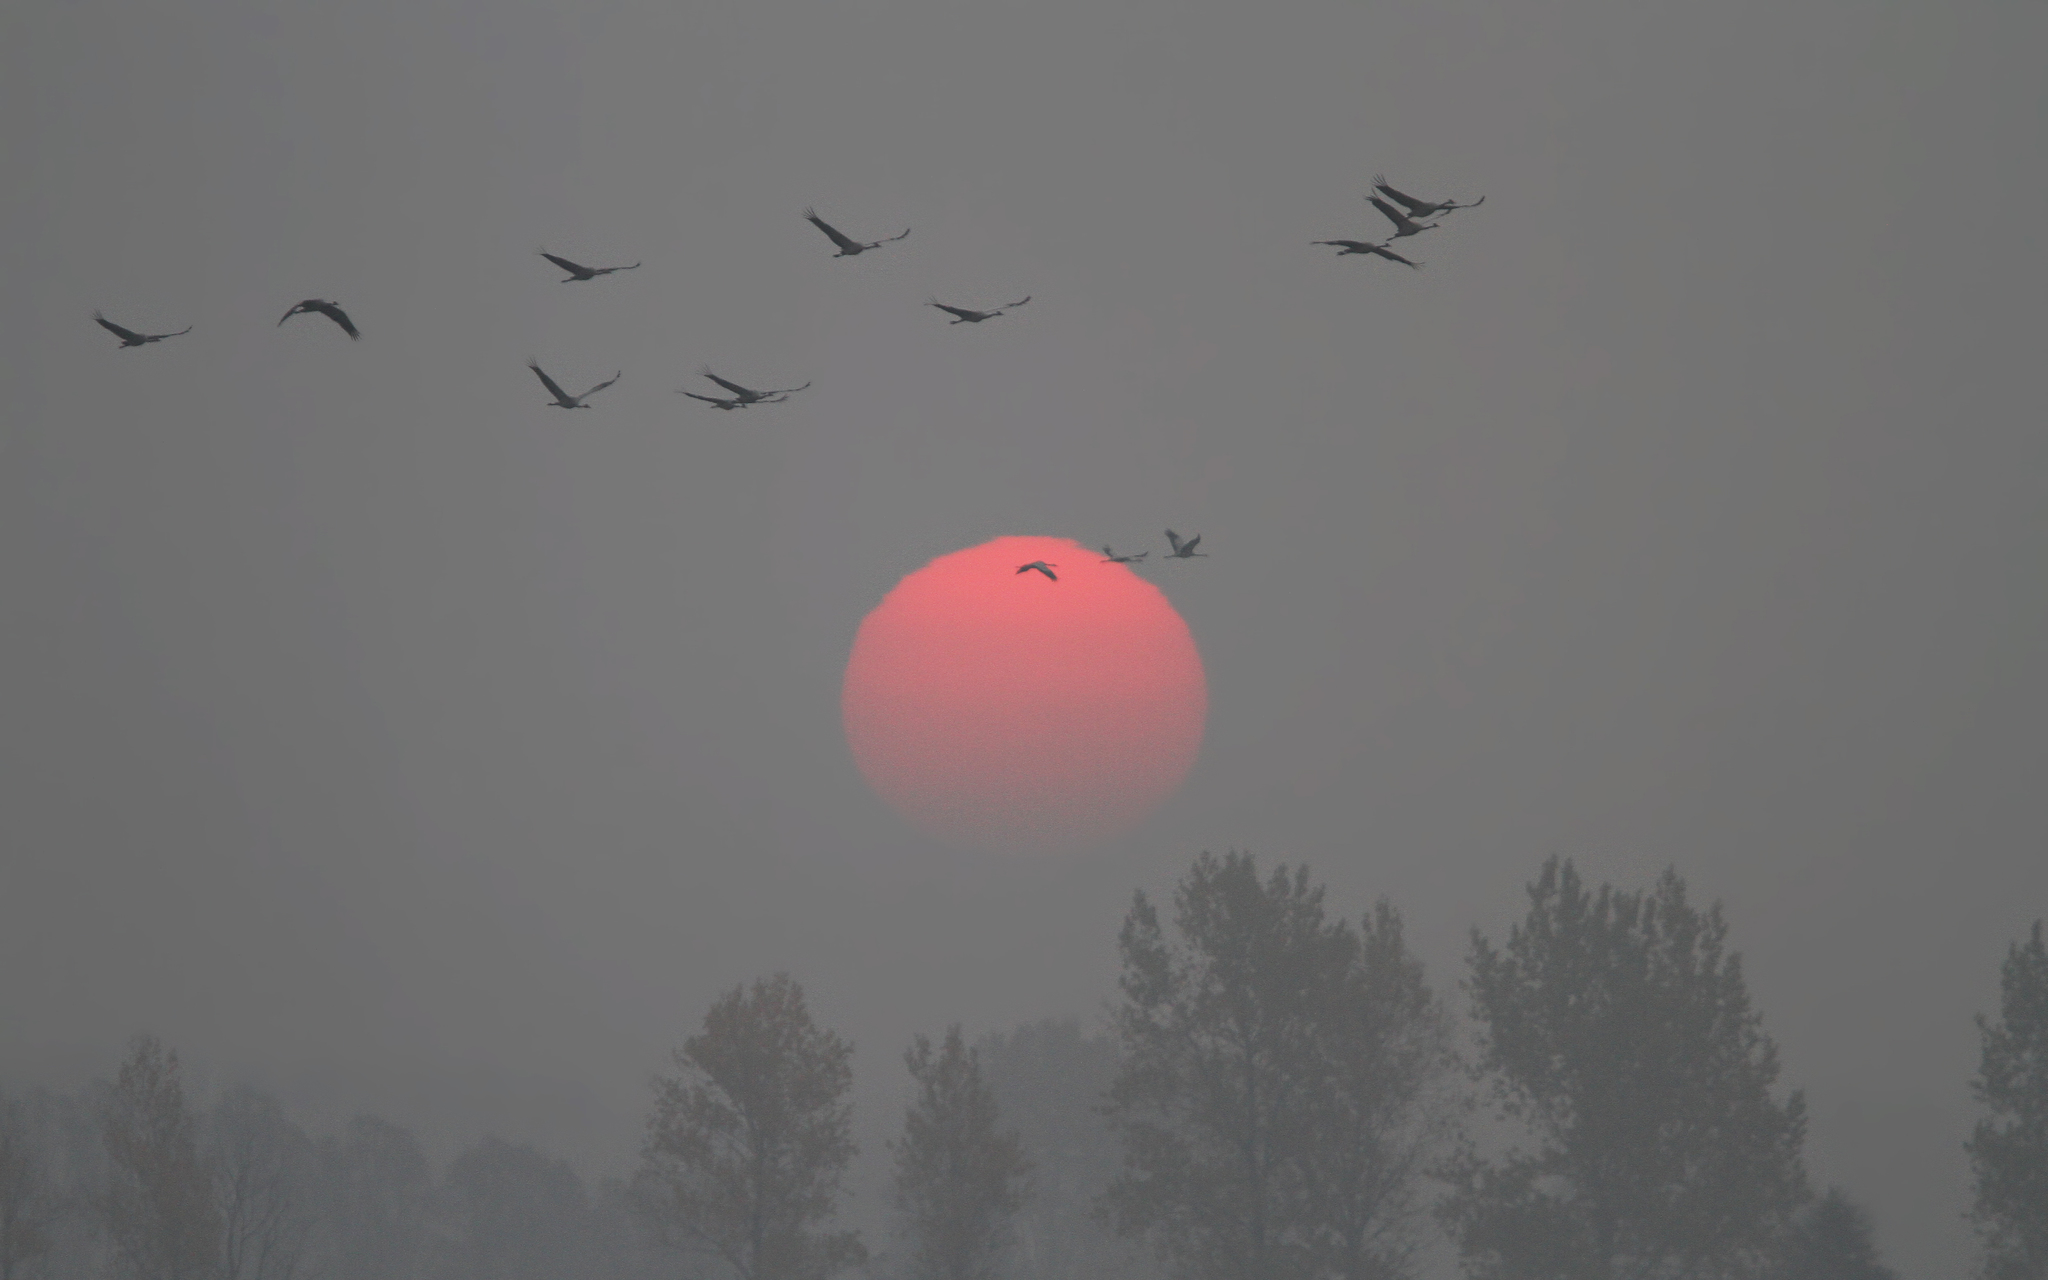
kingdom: Animalia
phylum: Chordata
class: Aves
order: Gruiformes
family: Gruidae
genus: Grus
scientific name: Grus grus
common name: Common crane
